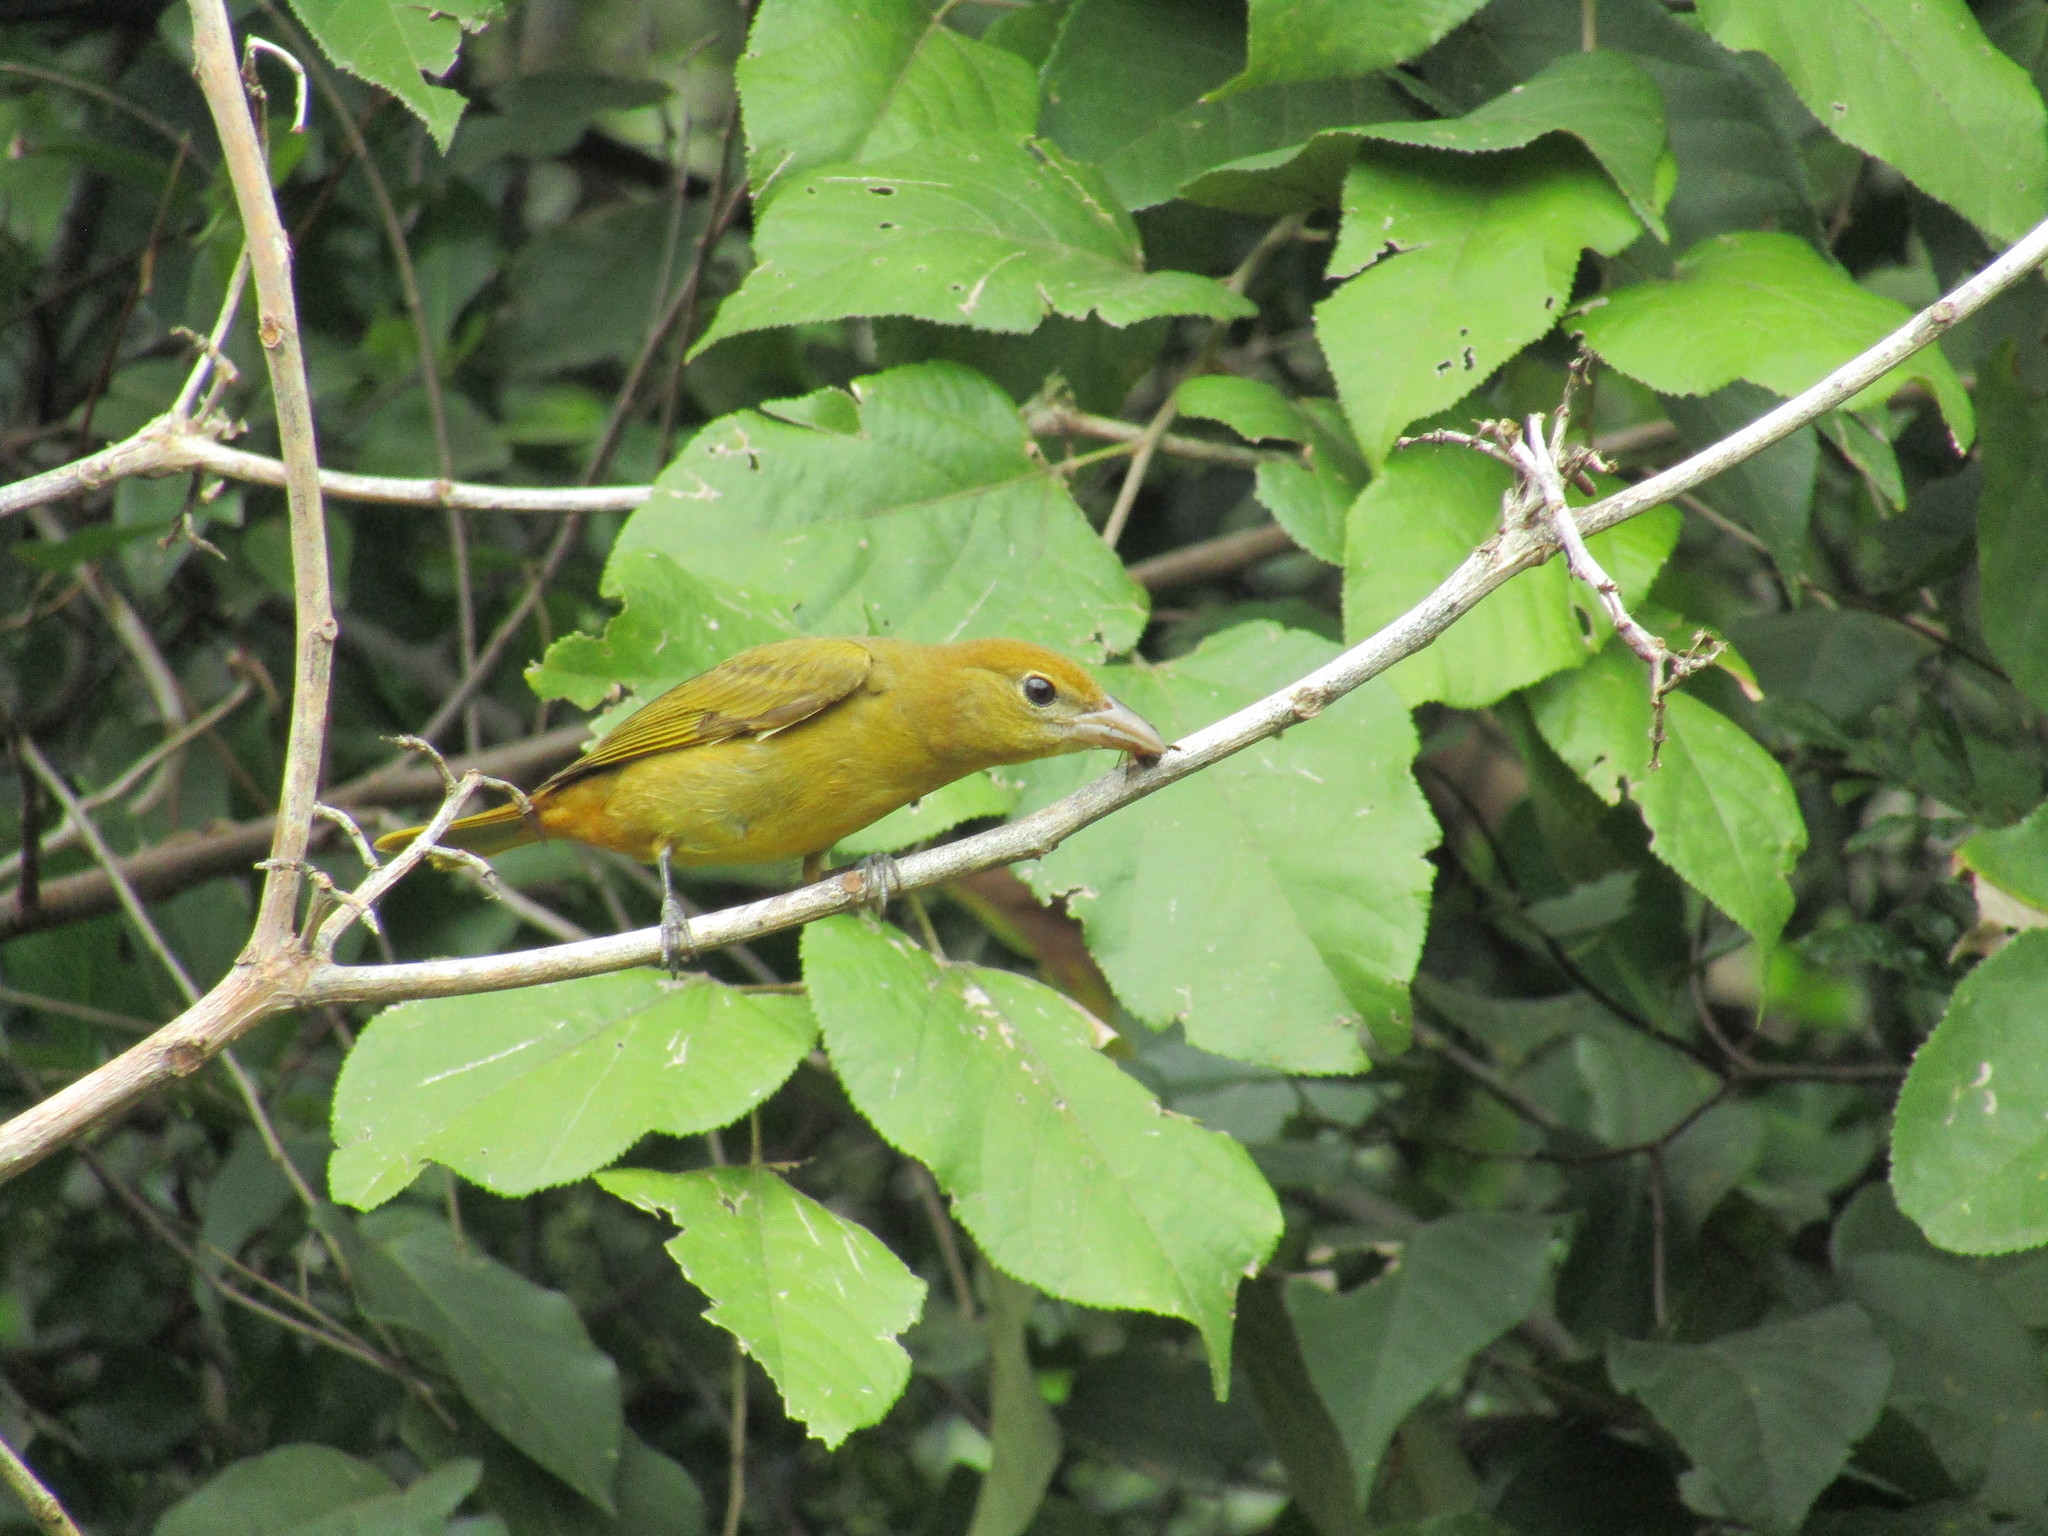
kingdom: Animalia
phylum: Chordata
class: Aves
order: Passeriformes
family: Cardinalidae
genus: Piranga
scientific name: Piranga rubra
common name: Summer tanager
